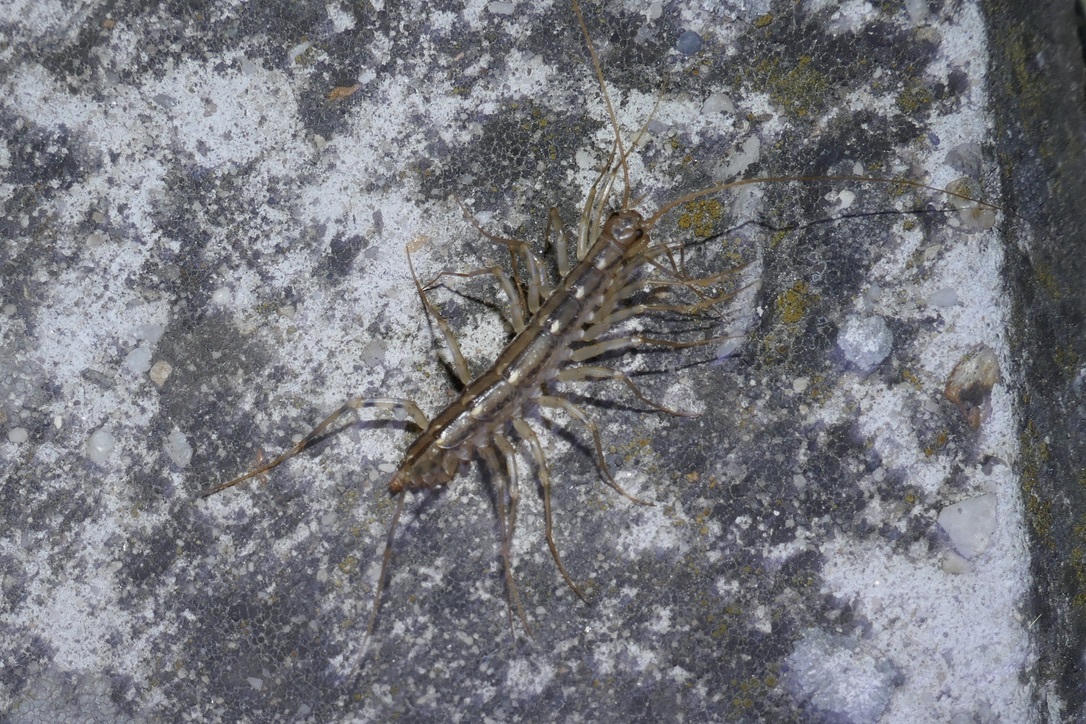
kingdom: Animalia
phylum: Arthropoda
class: Chilopoda
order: Scutigeromorpha
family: Scutigeridae
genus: Scutigera
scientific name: Scutigera coleoptrata
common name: House centipede
